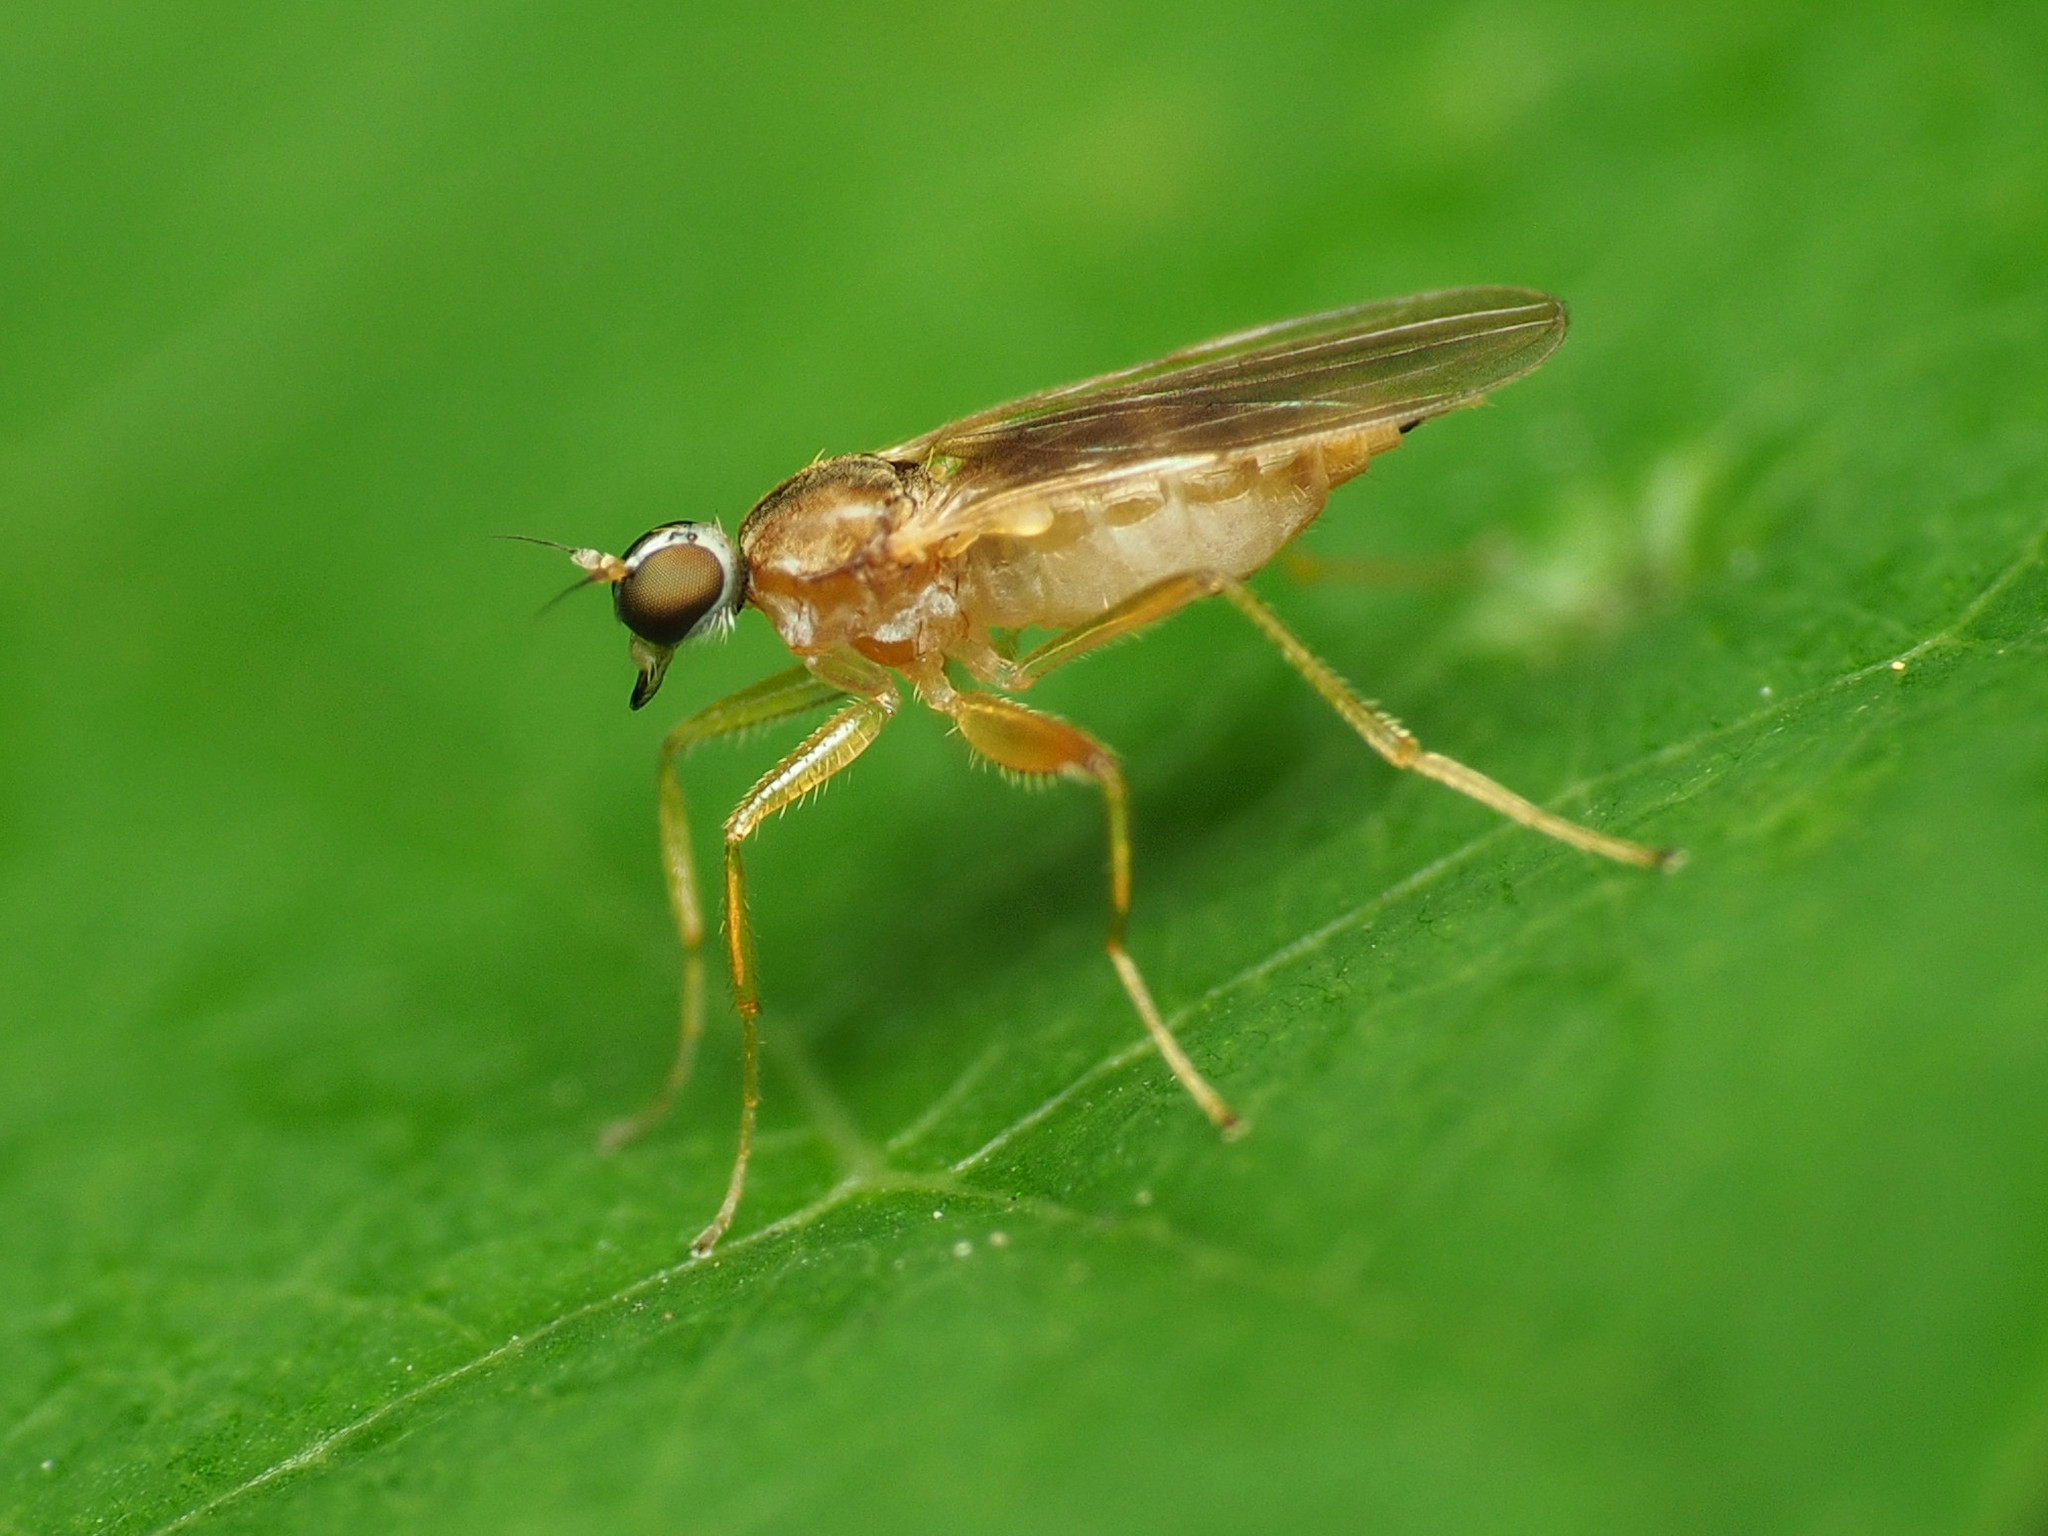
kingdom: Animalia
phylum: Arthropoda
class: Insecta
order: Diptera
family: Hybotidae
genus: Platypalpus
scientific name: Platypalpus rubefactus
